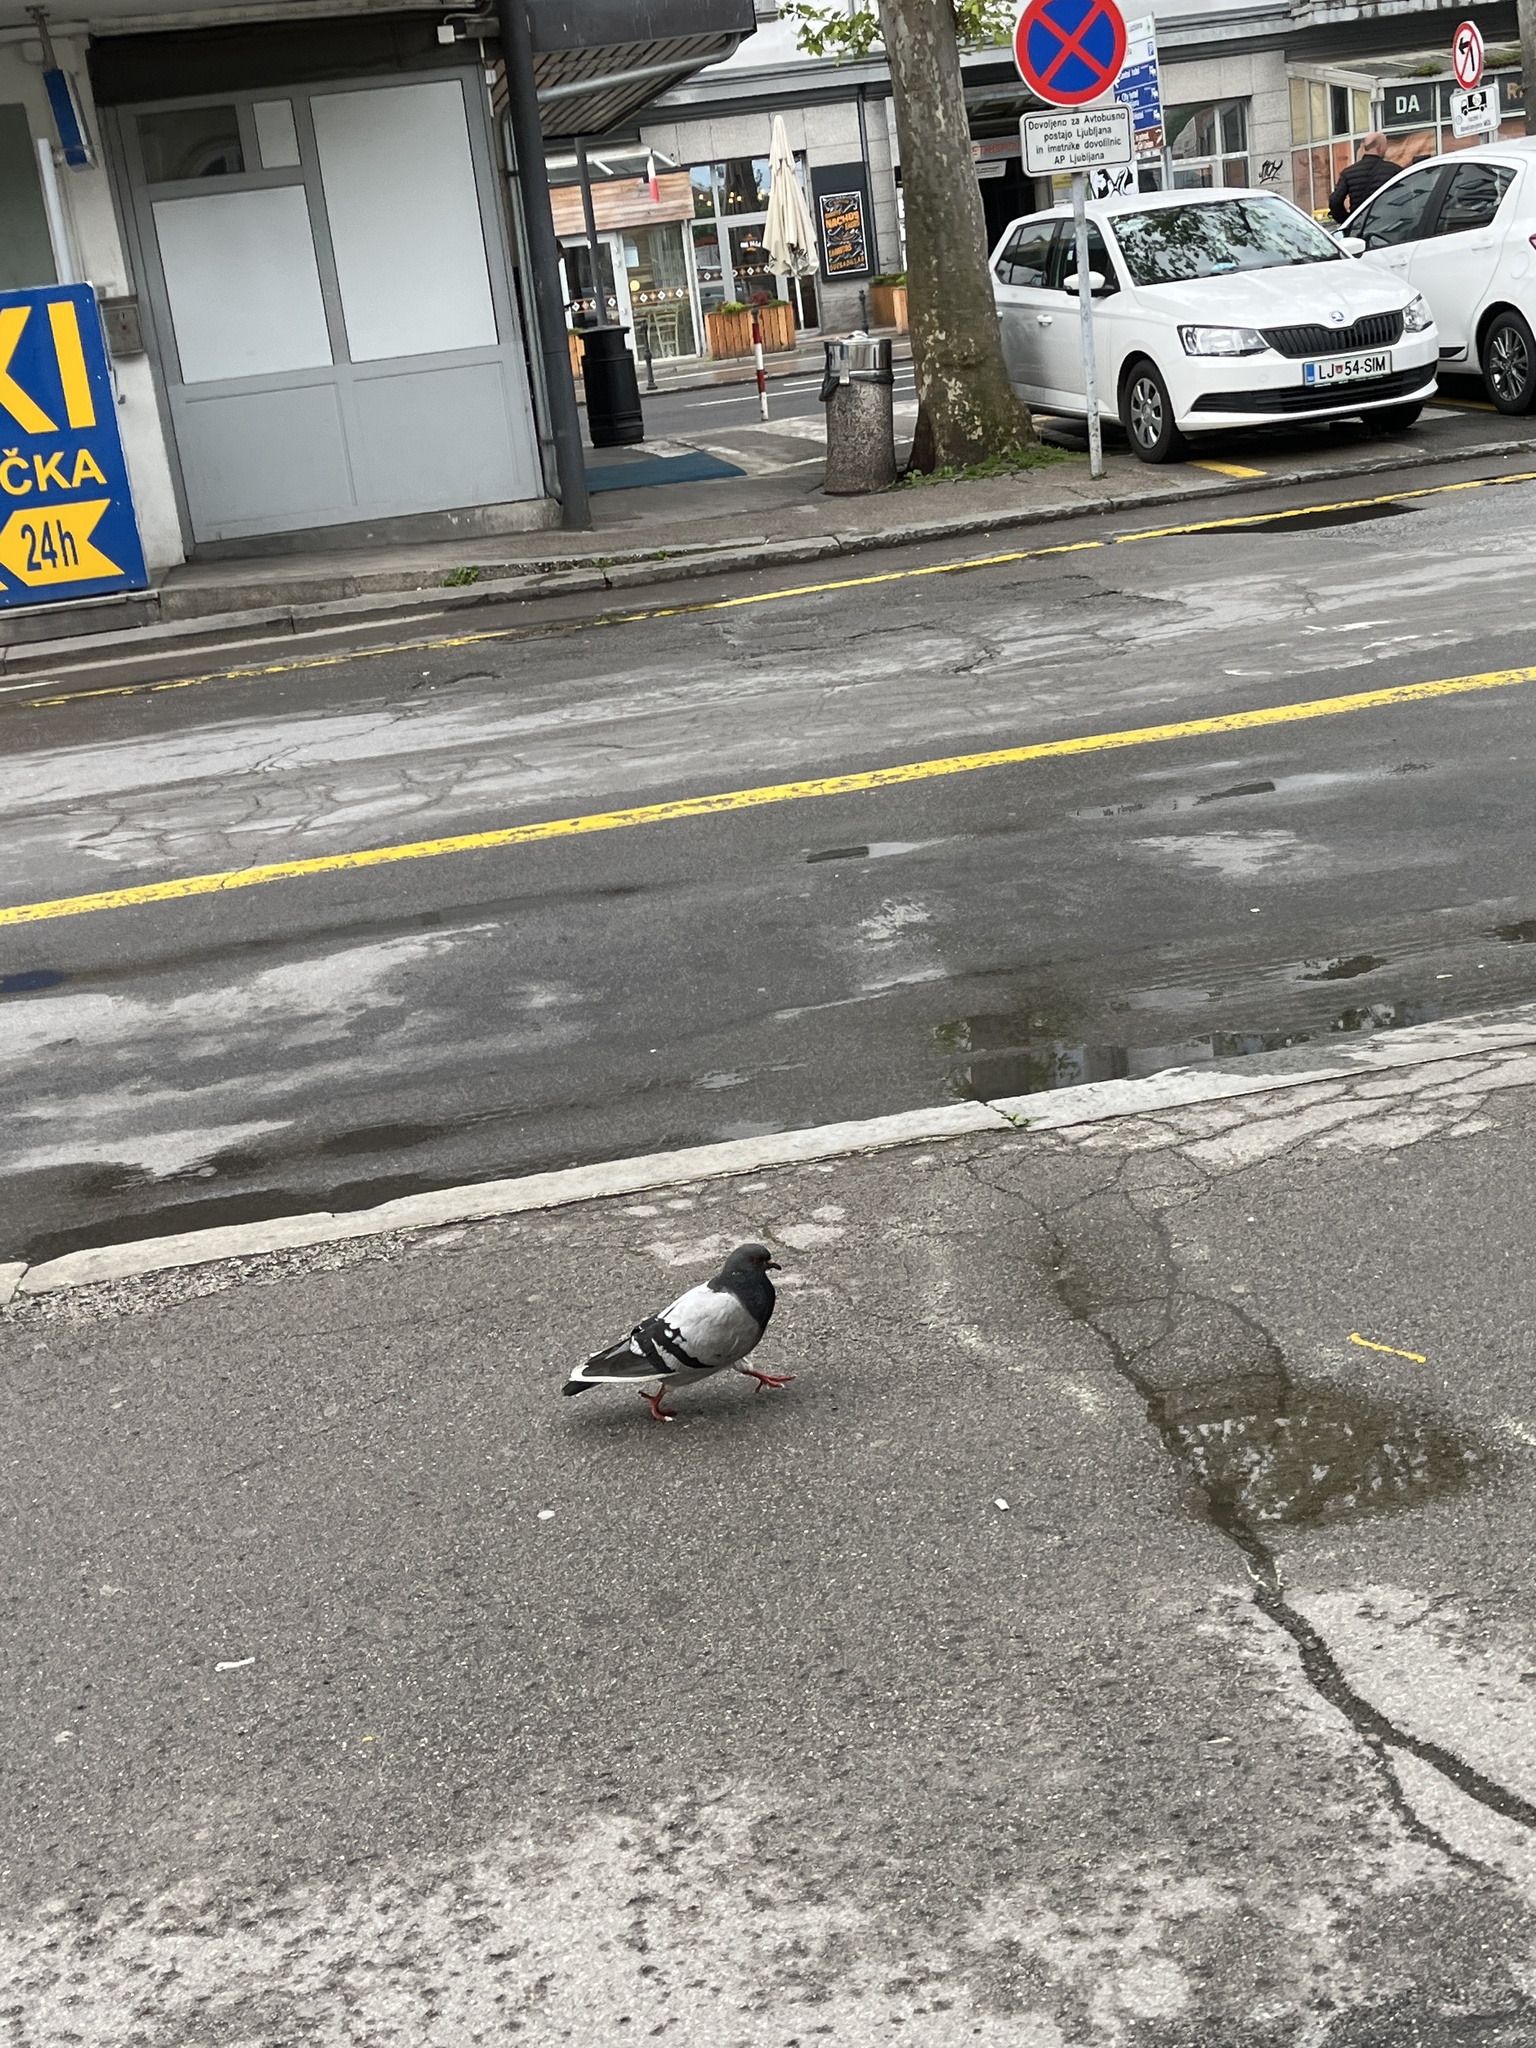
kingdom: Animalia
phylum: Chordata
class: Aves
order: Columbiformes
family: Columbidae
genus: Columba
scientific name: Columba livia
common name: Rock pigeon
